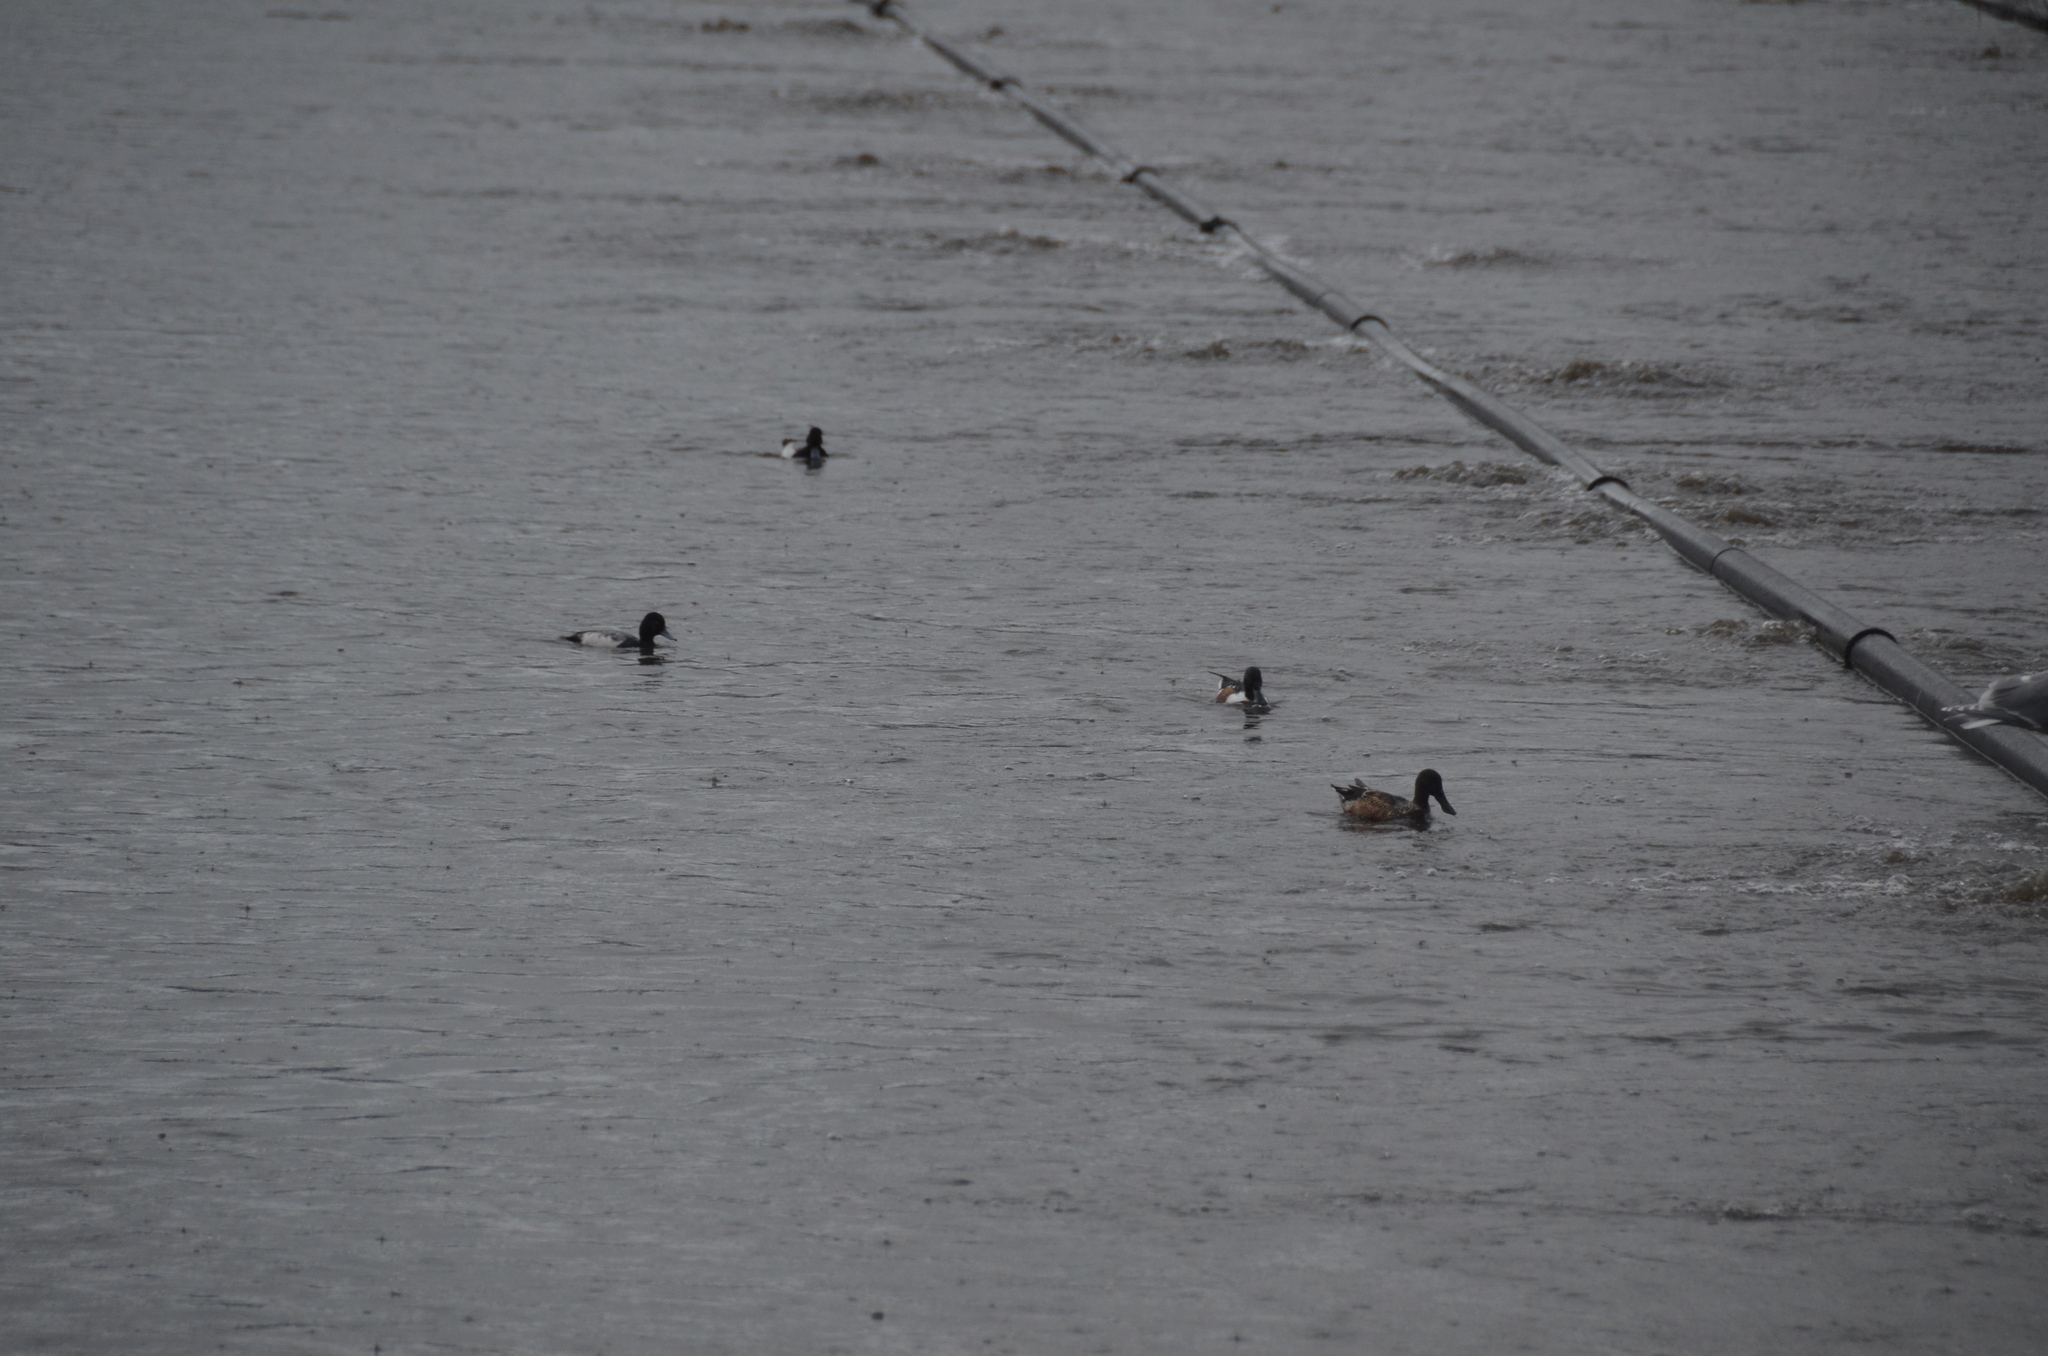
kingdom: Animalia
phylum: Chordata
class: Aves
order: Anseriformes
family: Anatidae
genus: Spatula
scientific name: Spatula clypeata
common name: Northern shoveler
